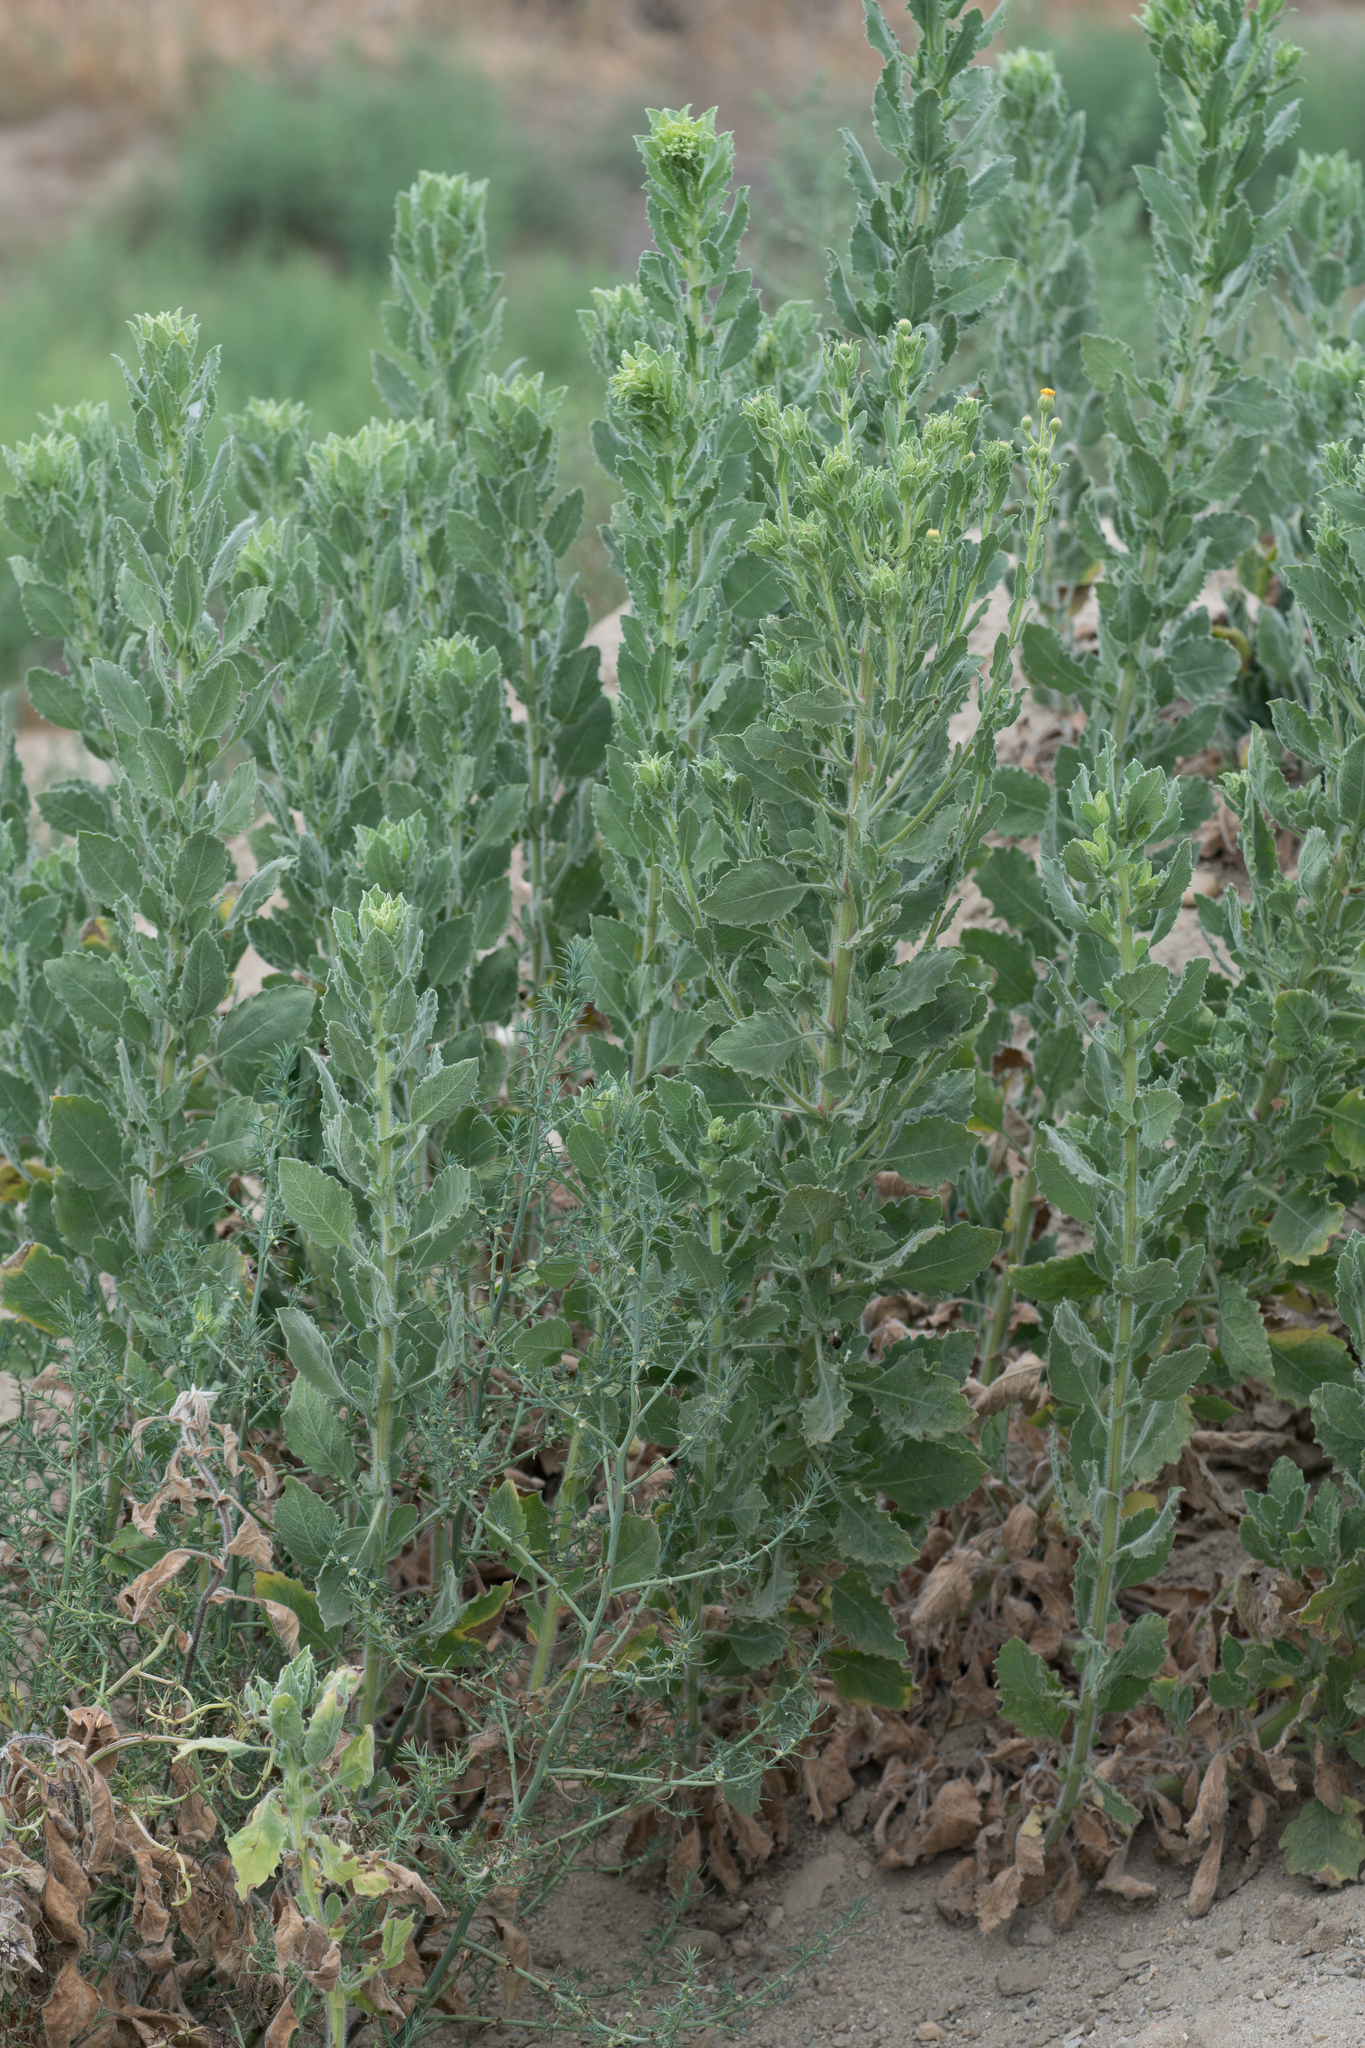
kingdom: Plantae
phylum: Tracheophyta
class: Magnoliopsida
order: Asterales
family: Asteraceae
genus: Heterotheca
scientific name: Heterotheca grandiflora
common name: Telegraphweed
